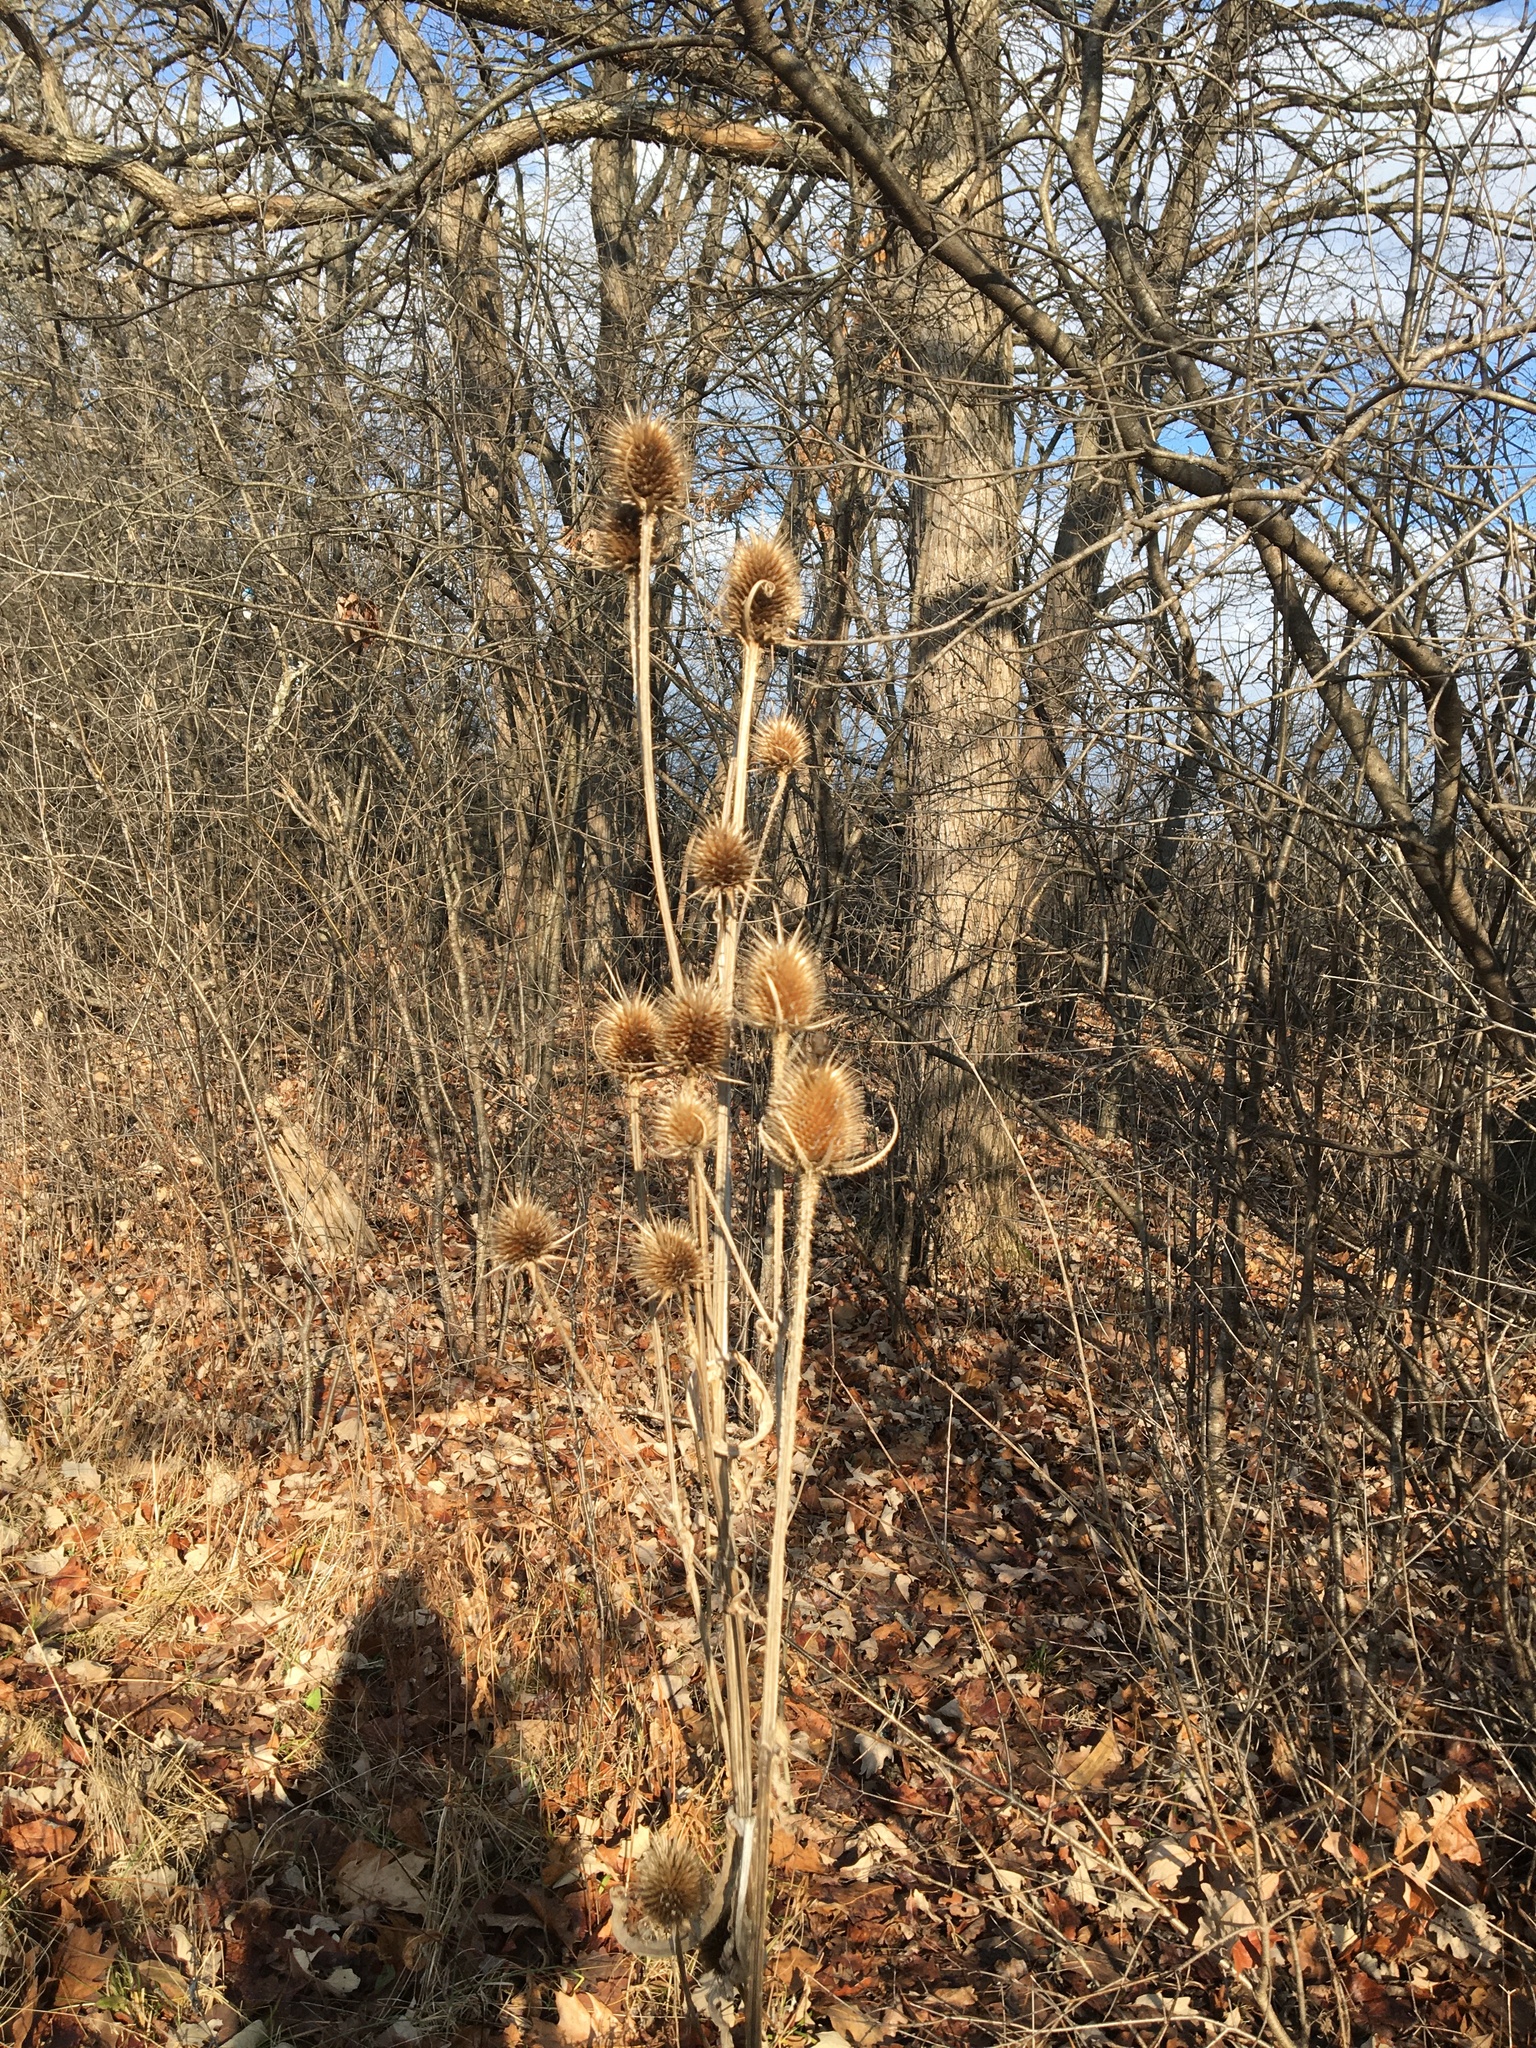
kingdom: Plantae
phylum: Tracheophyta
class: Magnoliopsida
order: Dipsacales
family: Caprifoliaceae
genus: Dipsacus
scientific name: Dipsacus laciniatus
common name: Cut-leaved teasel
